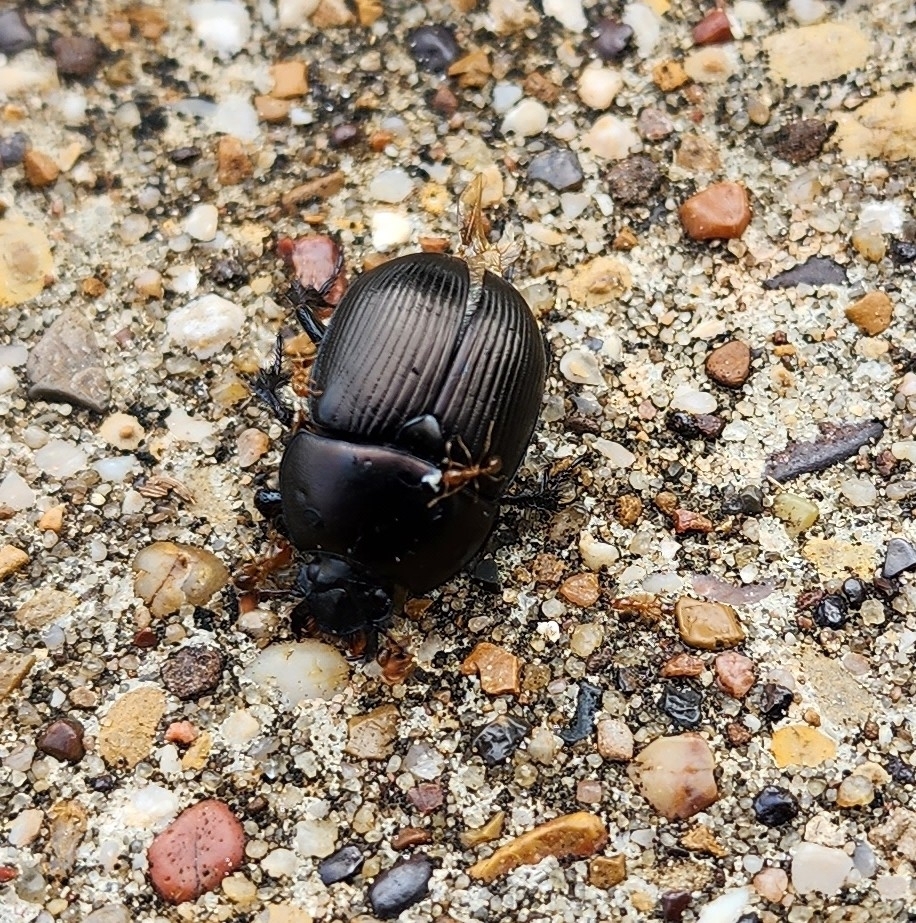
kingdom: Animalia
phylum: Arthropoda
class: Insecta
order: Coleoptera
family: Geotrupidae
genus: Cnemotrupes
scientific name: Cnemotrupes semiopacus
